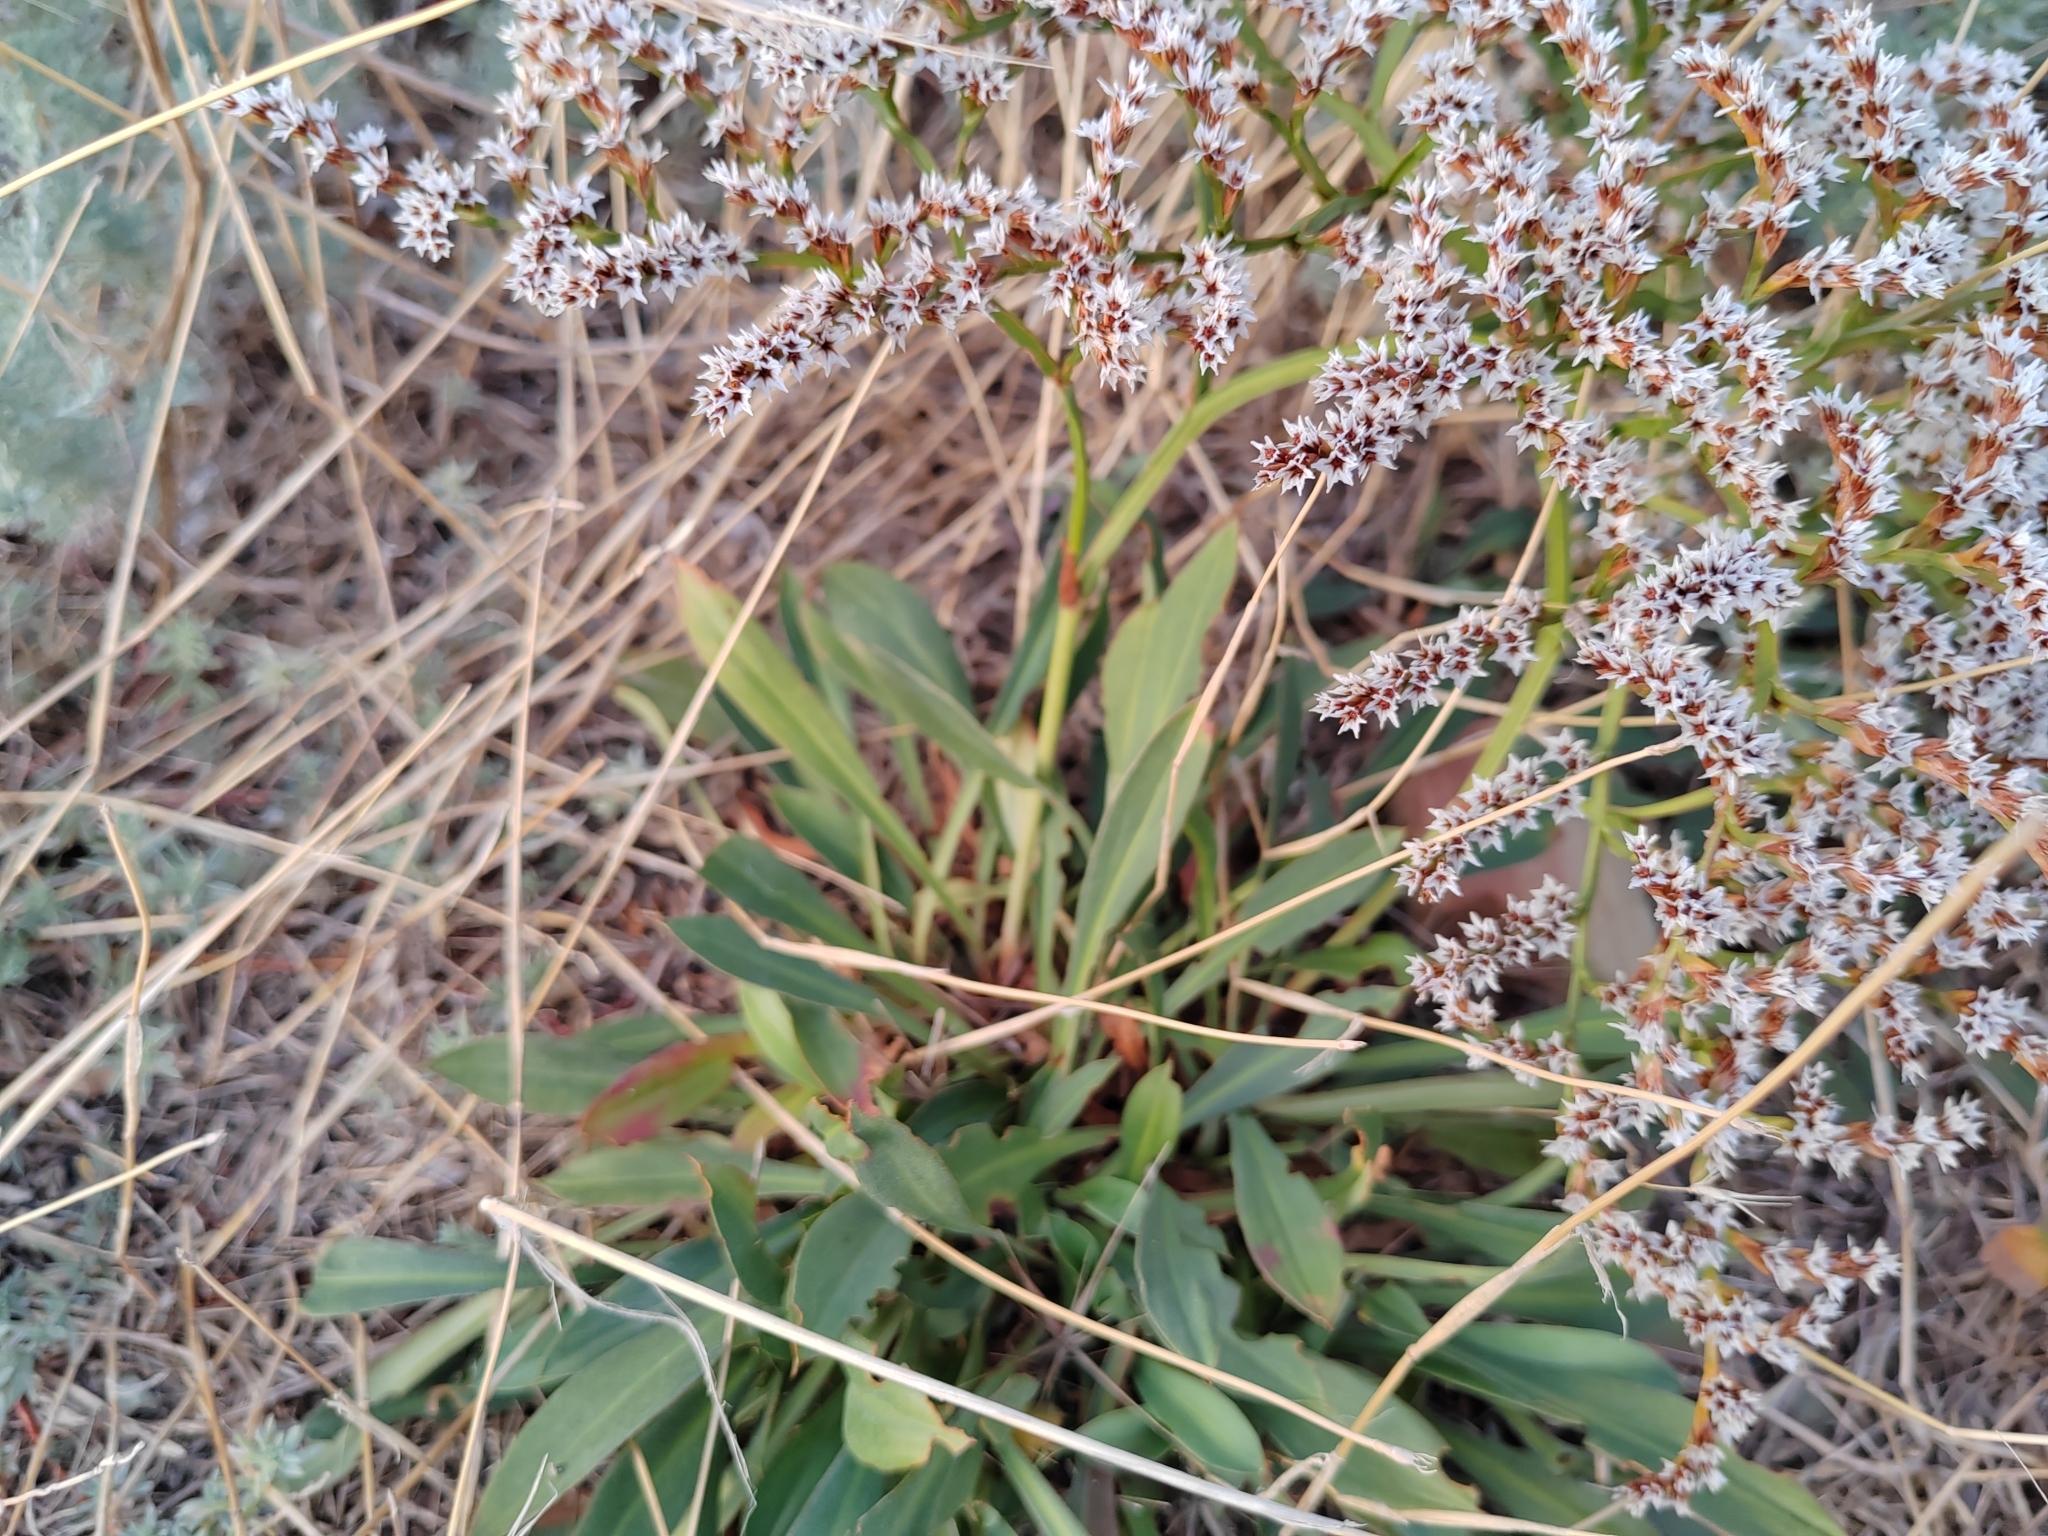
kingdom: Plantae
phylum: Tracheophyta
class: Magnoliopsida
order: Caryophyllales
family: Plumbaginaceae
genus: Goniolimon
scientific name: Goniolimon tataricum
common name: Statice
